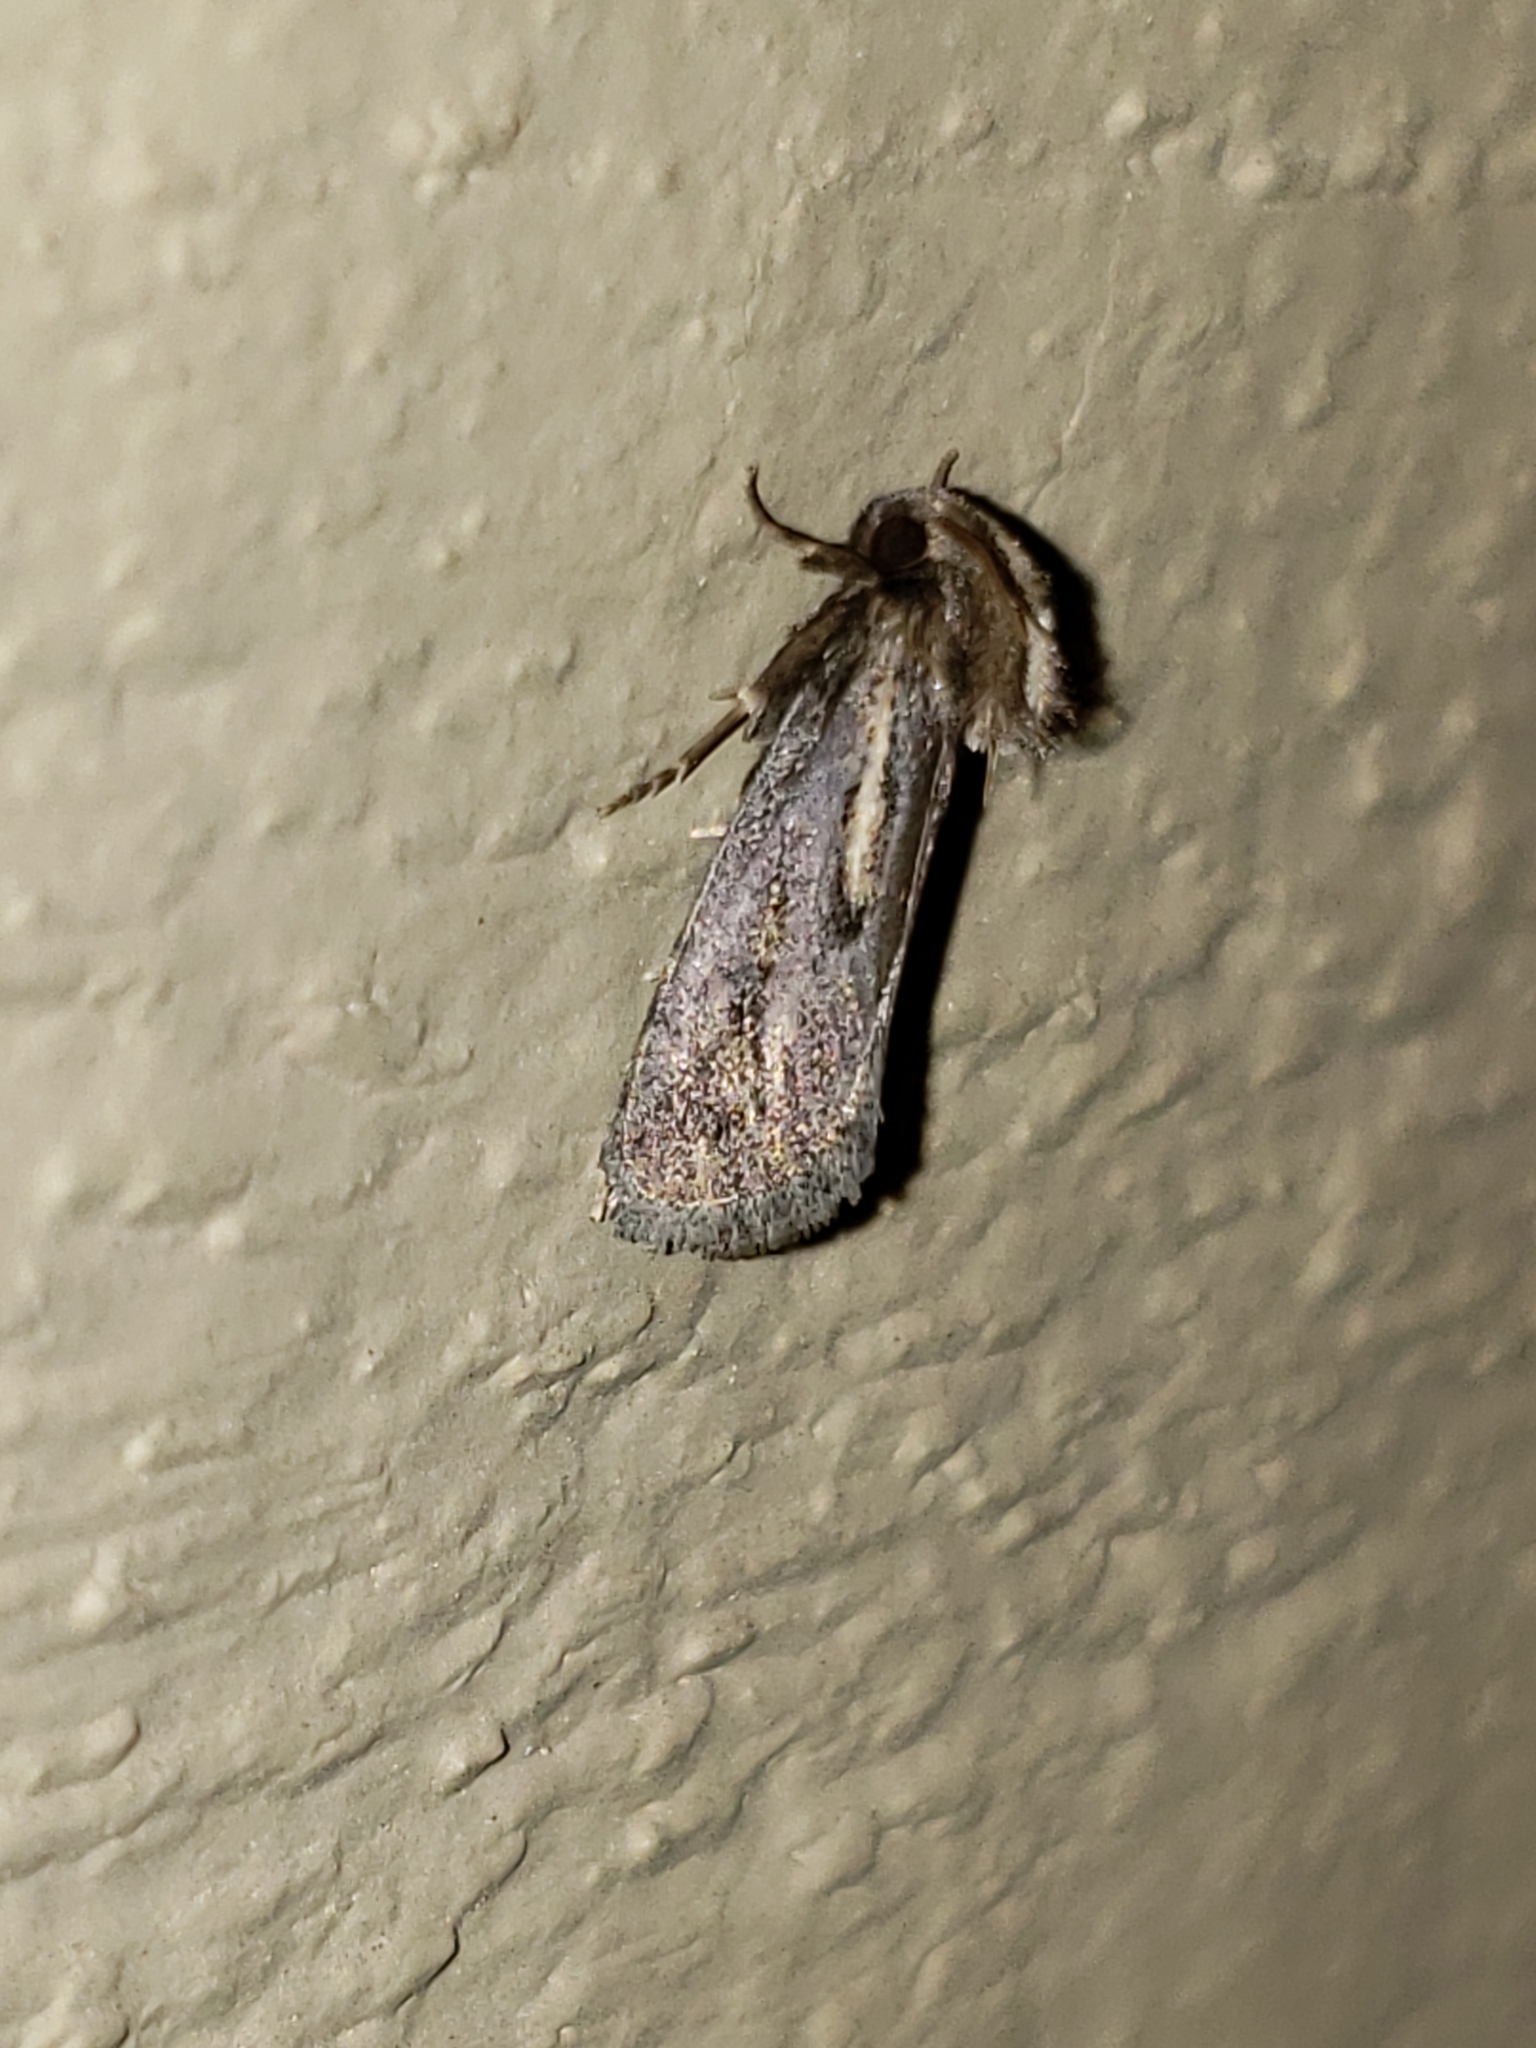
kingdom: Animalia
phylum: Arthropoda
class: Insecta
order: Lepidoptera
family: Tineidae
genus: Acrolophus
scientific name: Acrolophus popeanella
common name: Clemens' grass tubeworm moth
